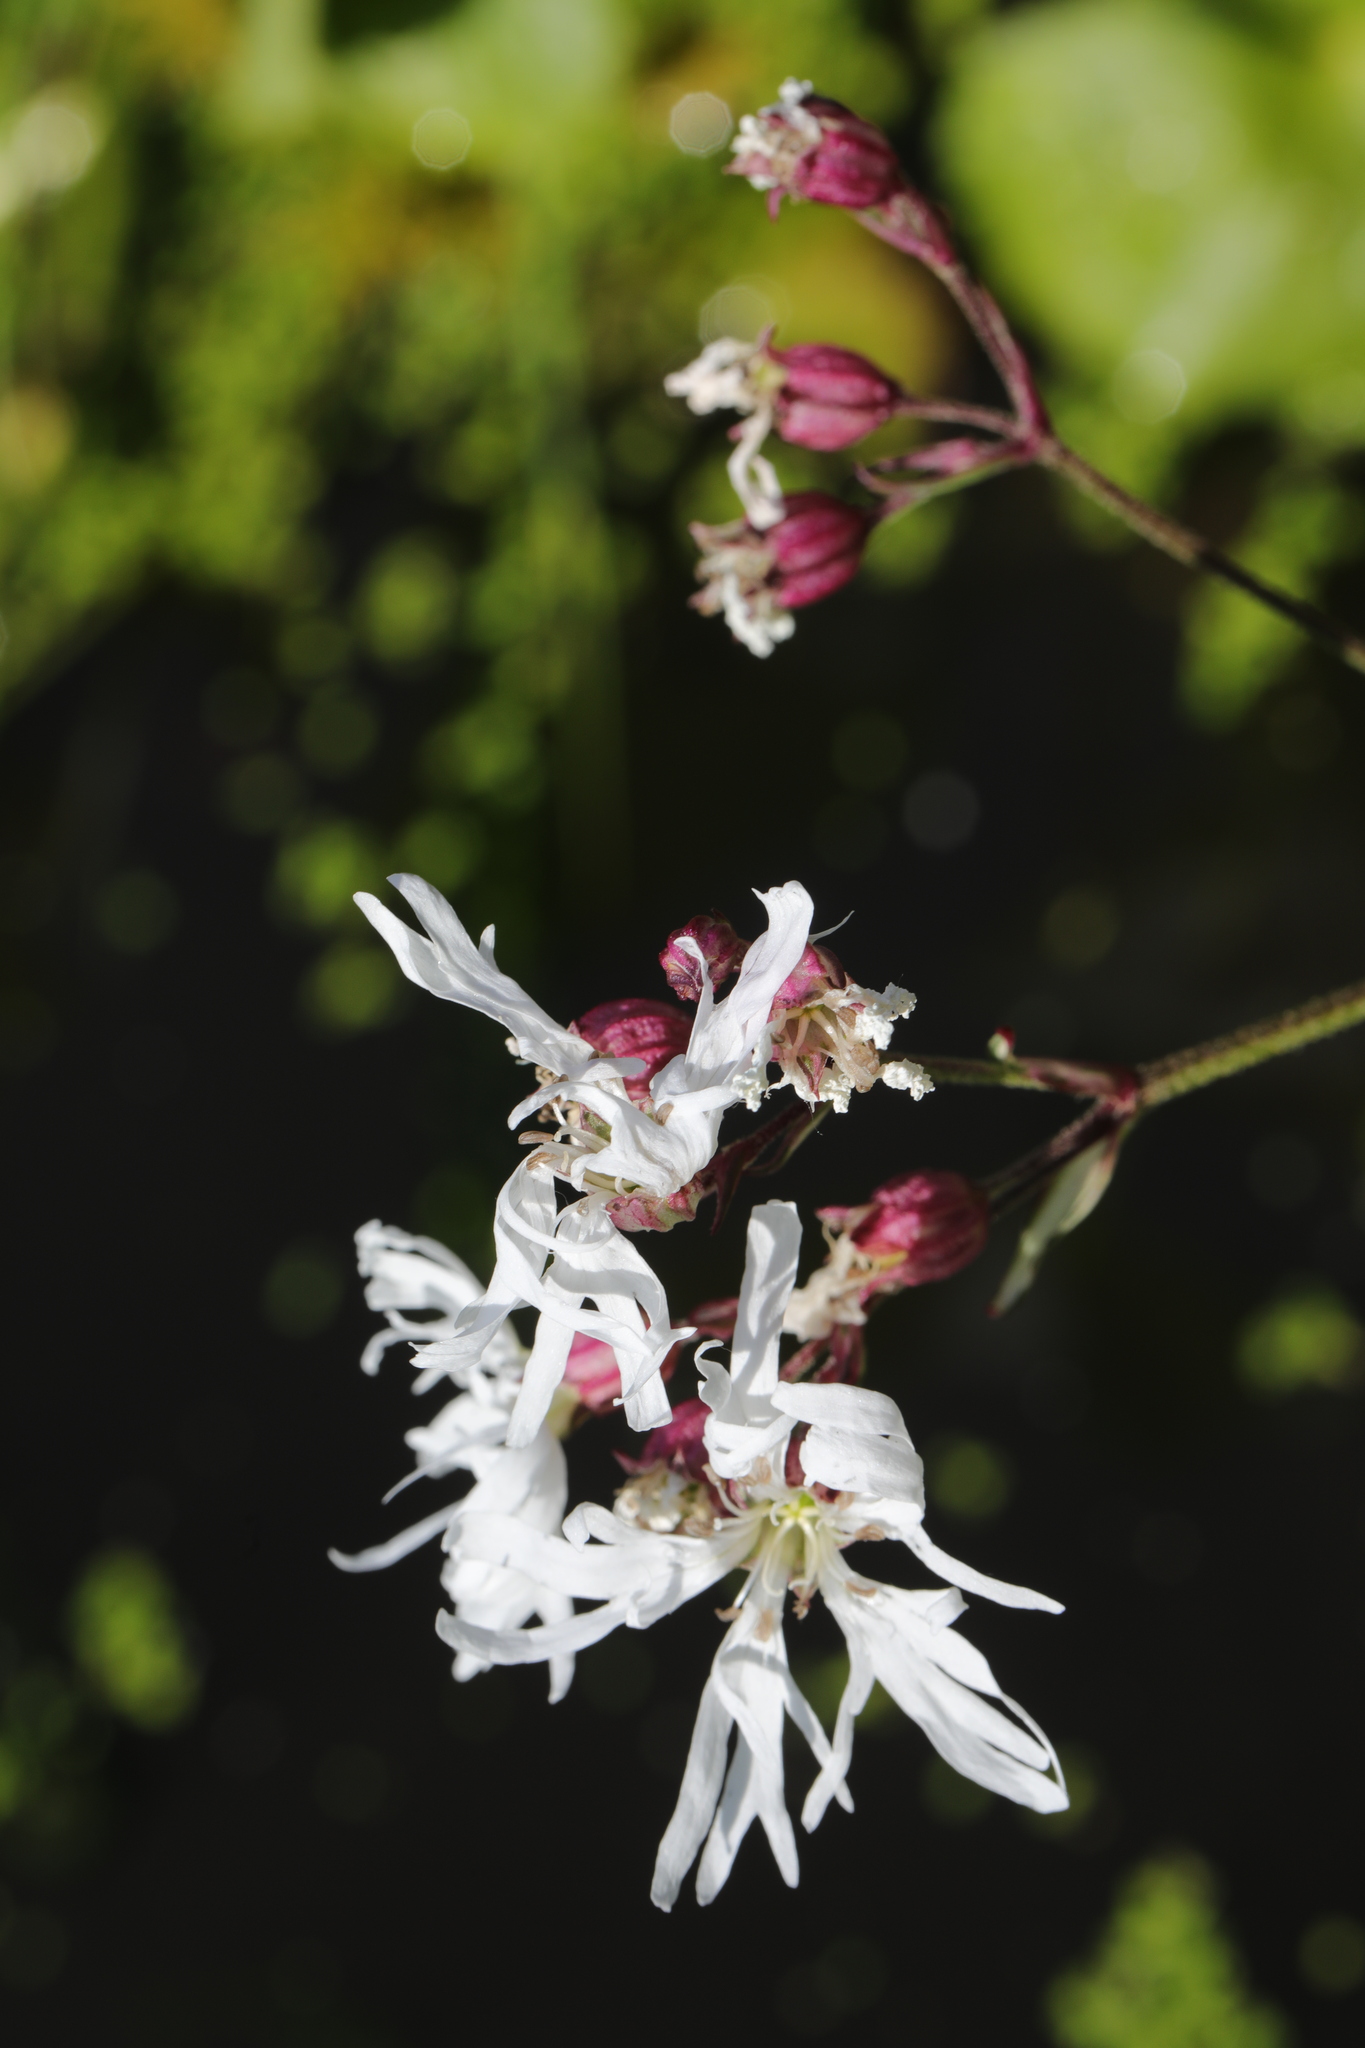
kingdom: Plantae
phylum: Tracheophyta
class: Magnoliopsida
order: Caryophyllales
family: Caryophyllaceae
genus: Silene
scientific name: Silene flos-cuculi
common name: Ragged-robin
